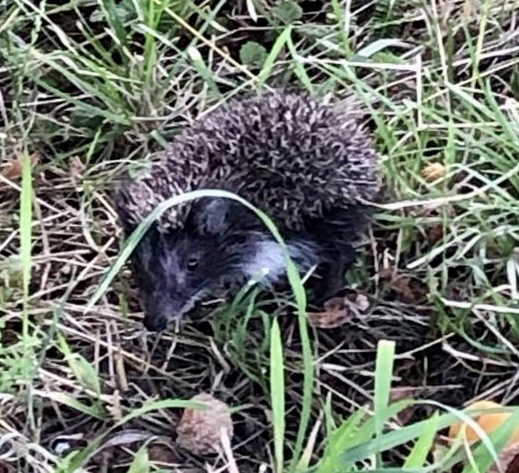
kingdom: Animalia
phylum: Chordata
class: Mammalia
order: Erinaceomorpha
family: Erinaceidae
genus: Erinaceus
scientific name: Erinaceus roumanicus
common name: Northern white-breasted hedgehog
